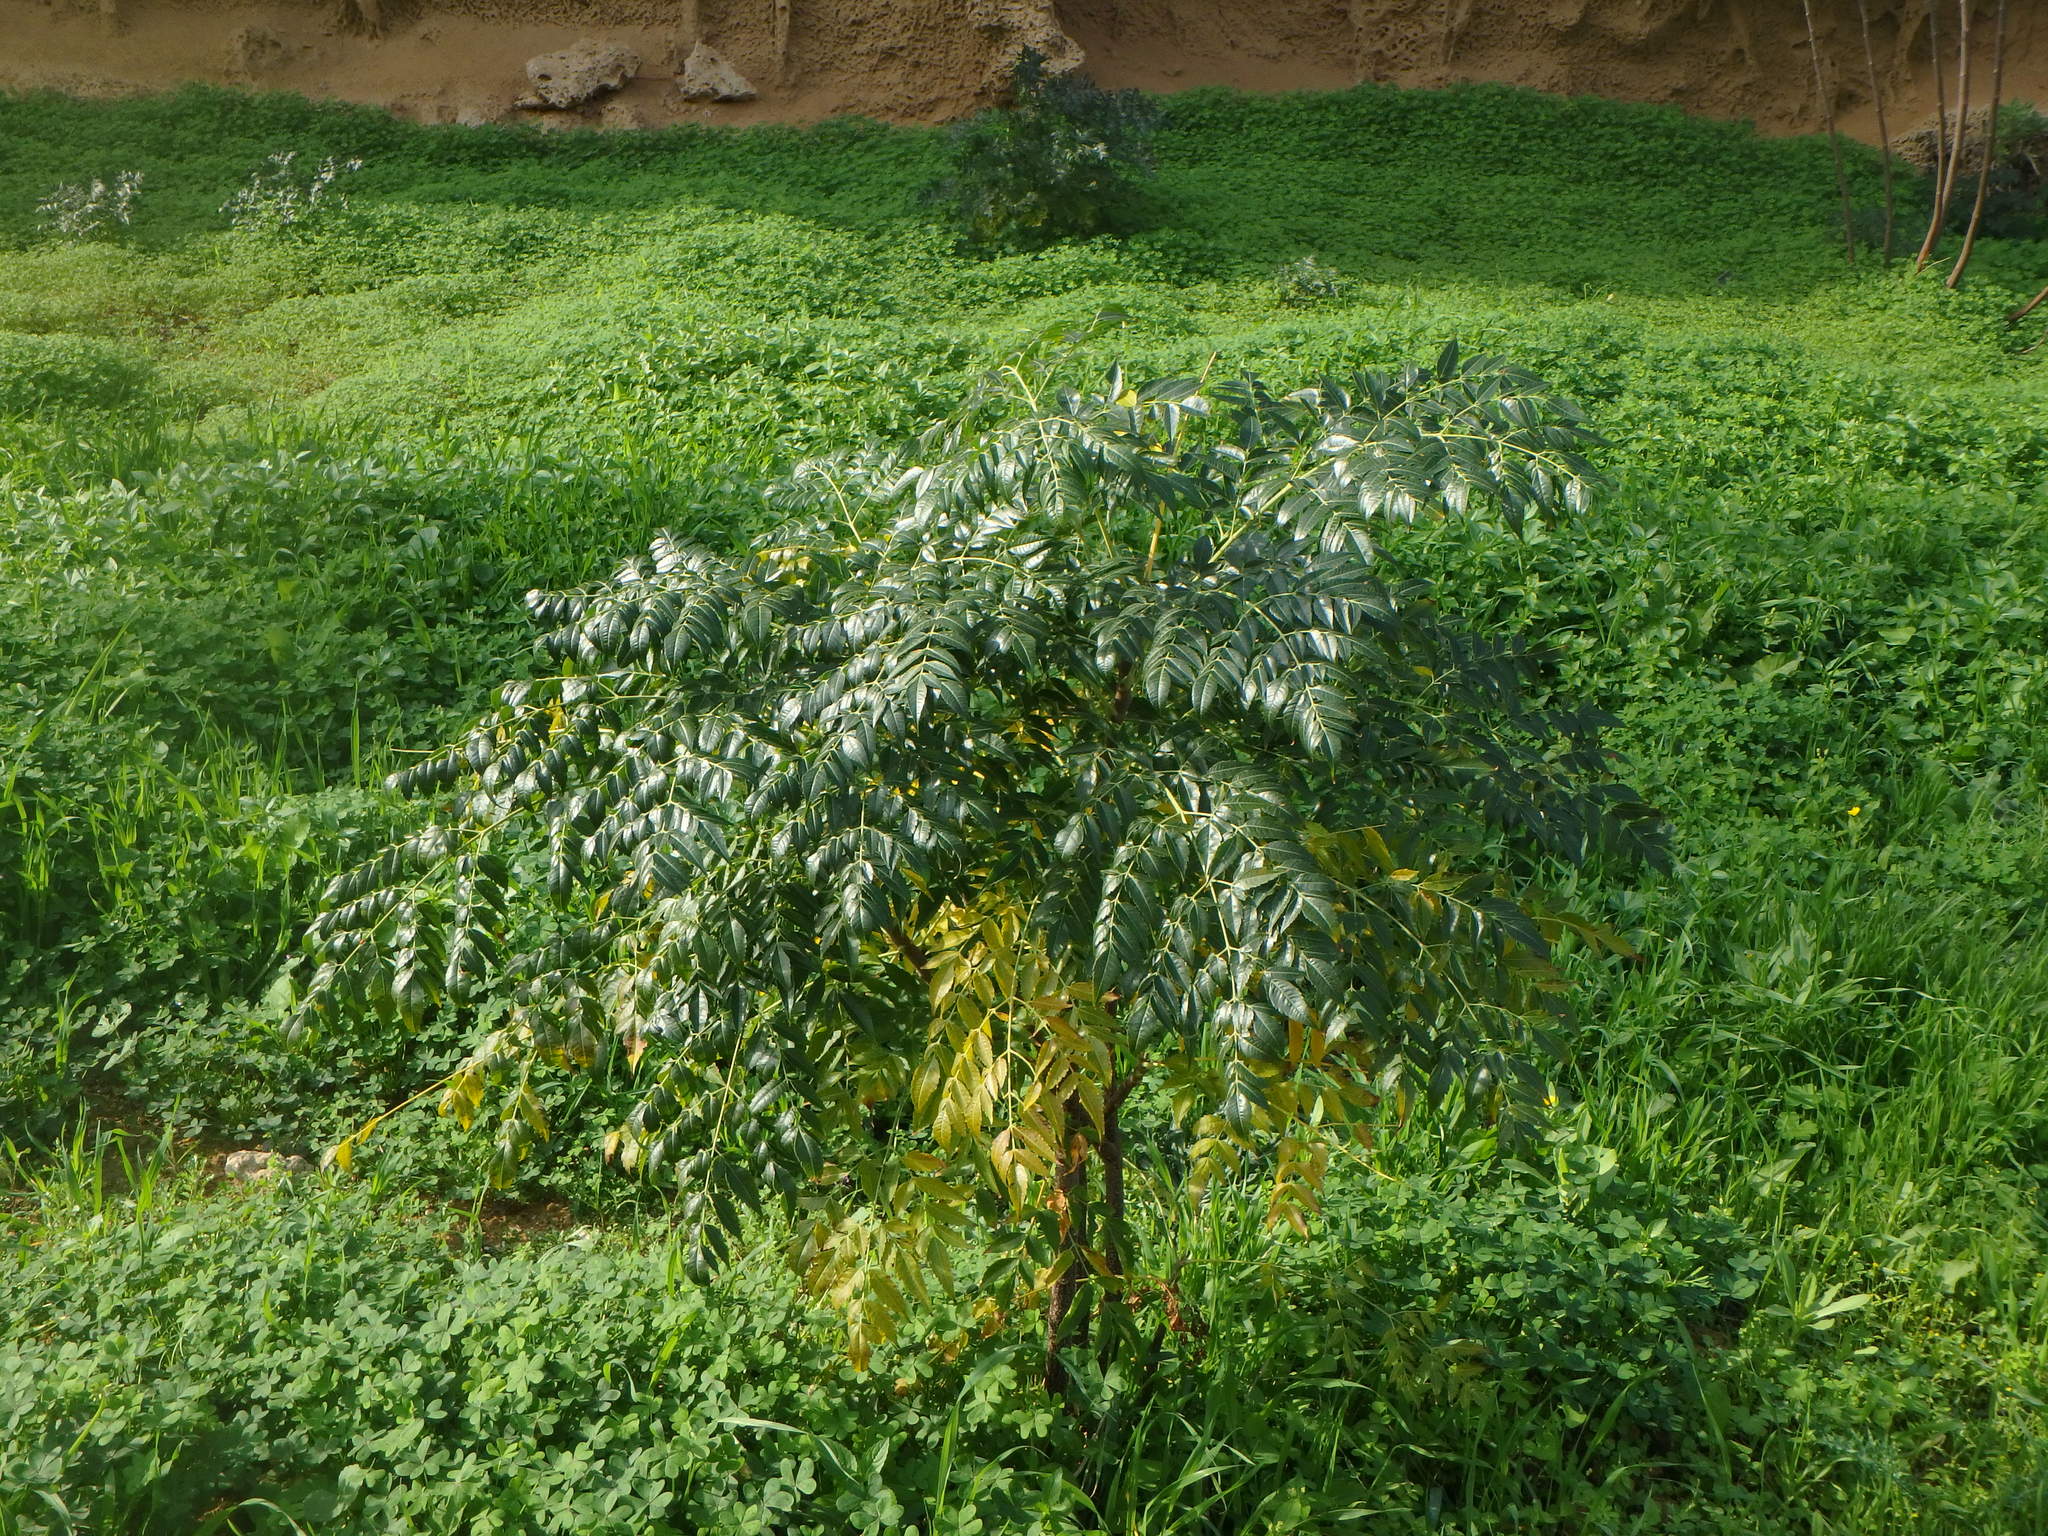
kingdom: Plantae
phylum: Tracheophyta
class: Magnoliopsida
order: Sapindales
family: Meliaceae
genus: Melia
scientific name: Melia azedarach
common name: Chinaberrytree
